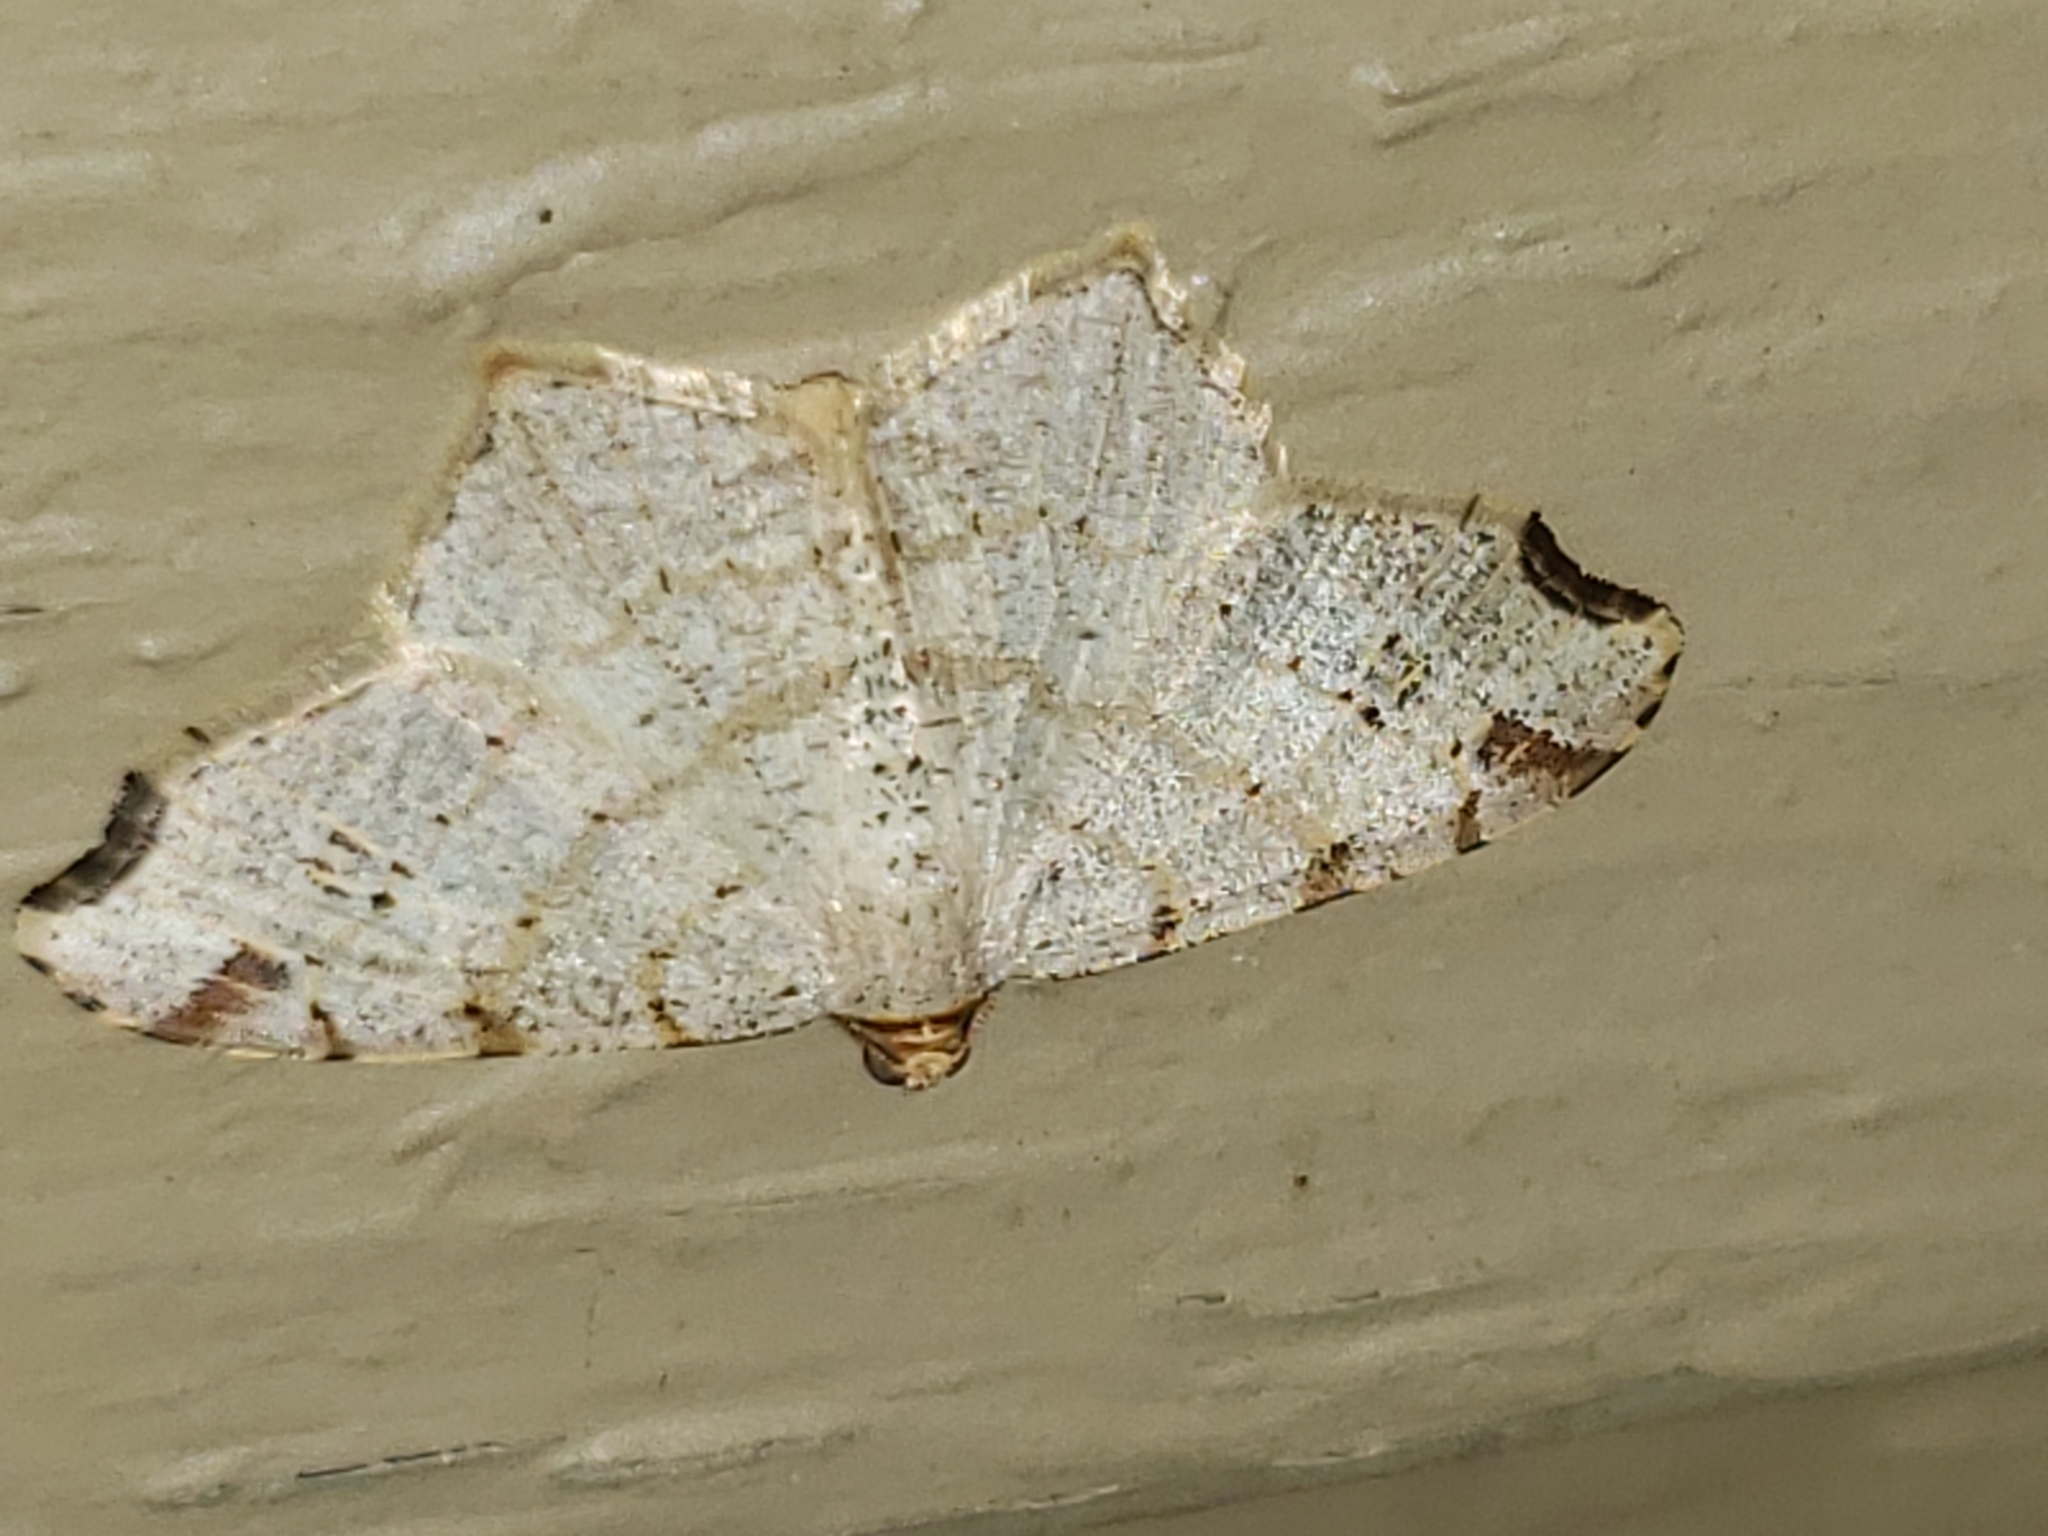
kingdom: Animalia
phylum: Arthropoda
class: Insecta
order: Lepidoptera
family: Geometridae
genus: Macaria
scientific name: Macaria bisignata
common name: Red-headed inchworm
